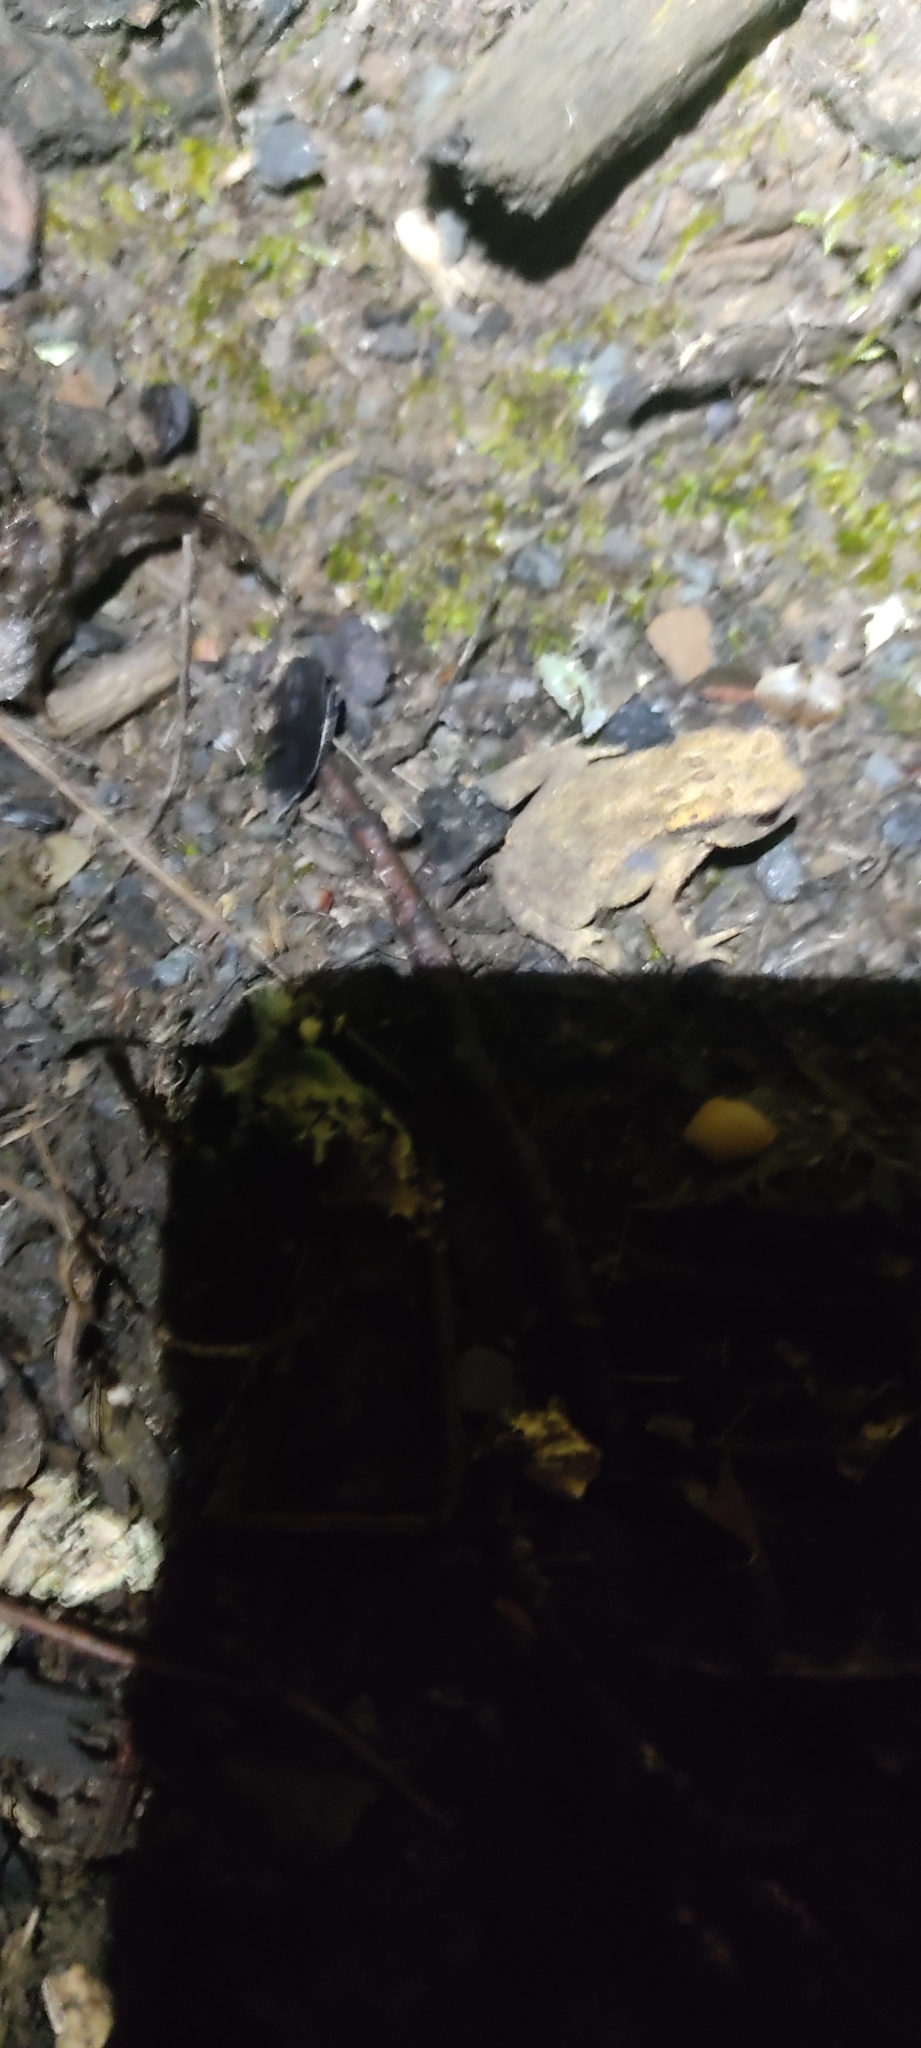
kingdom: Animalia
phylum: Chordata
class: Amphibia
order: Anura
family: Bufonidae
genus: Bufo
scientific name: Bufo spinosus
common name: Western common toad
